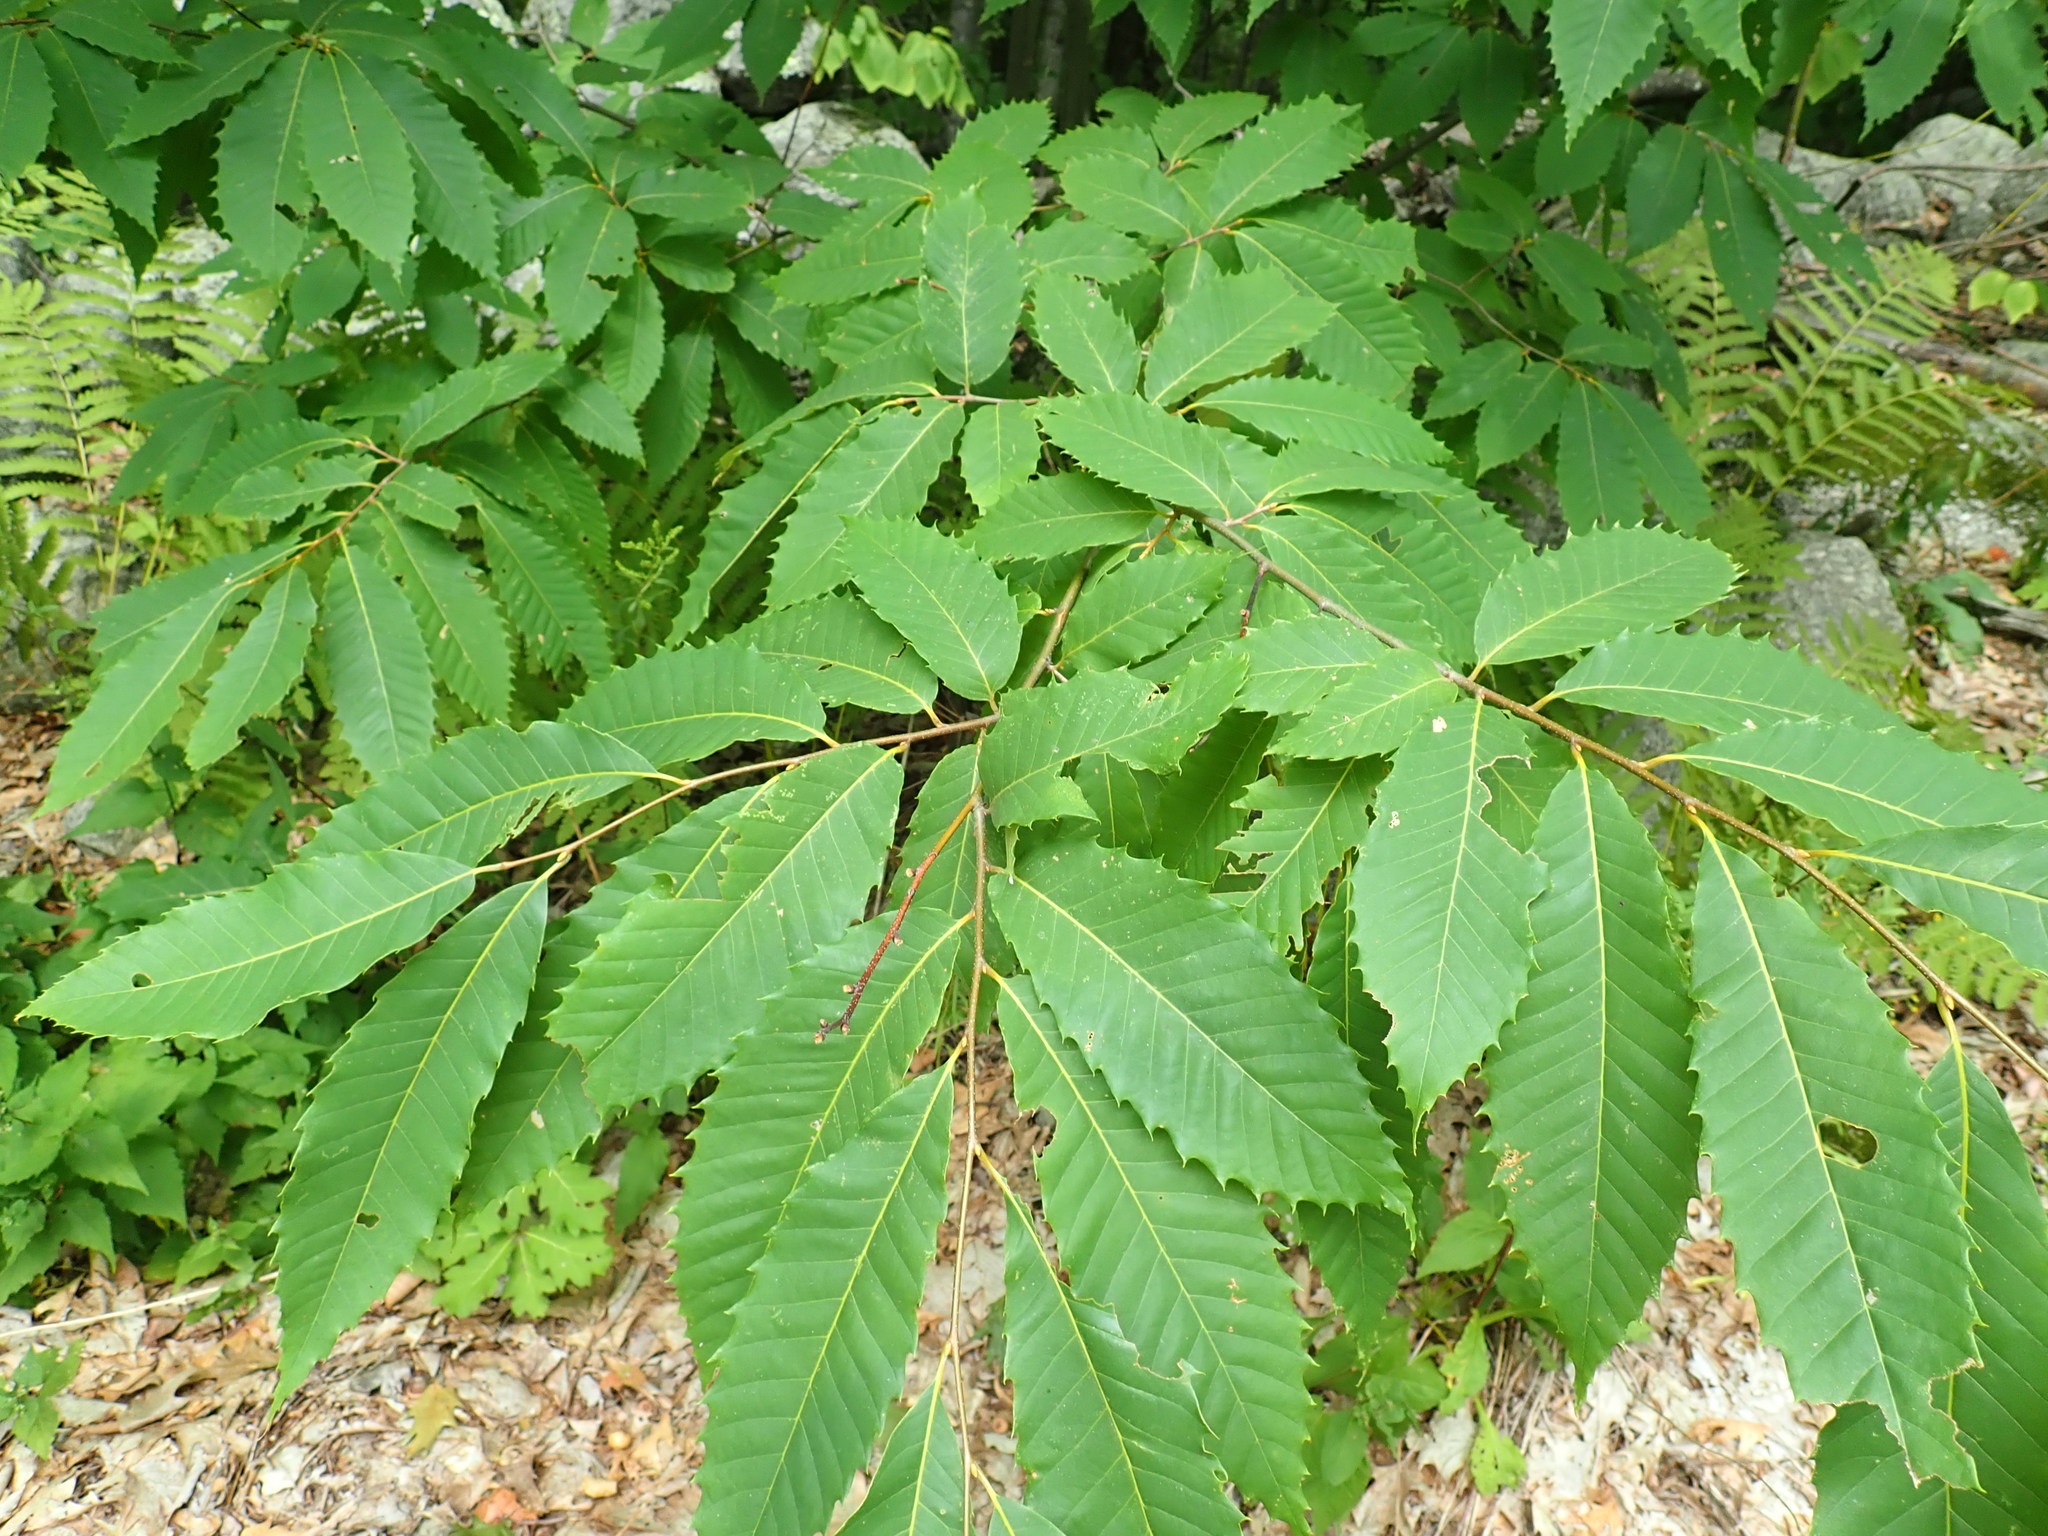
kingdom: Plantae
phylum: Tracheophyta
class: Magnoliopsida
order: Fagales
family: Fagaceae
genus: Castanea
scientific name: Castanea dentata
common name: American chestnut
